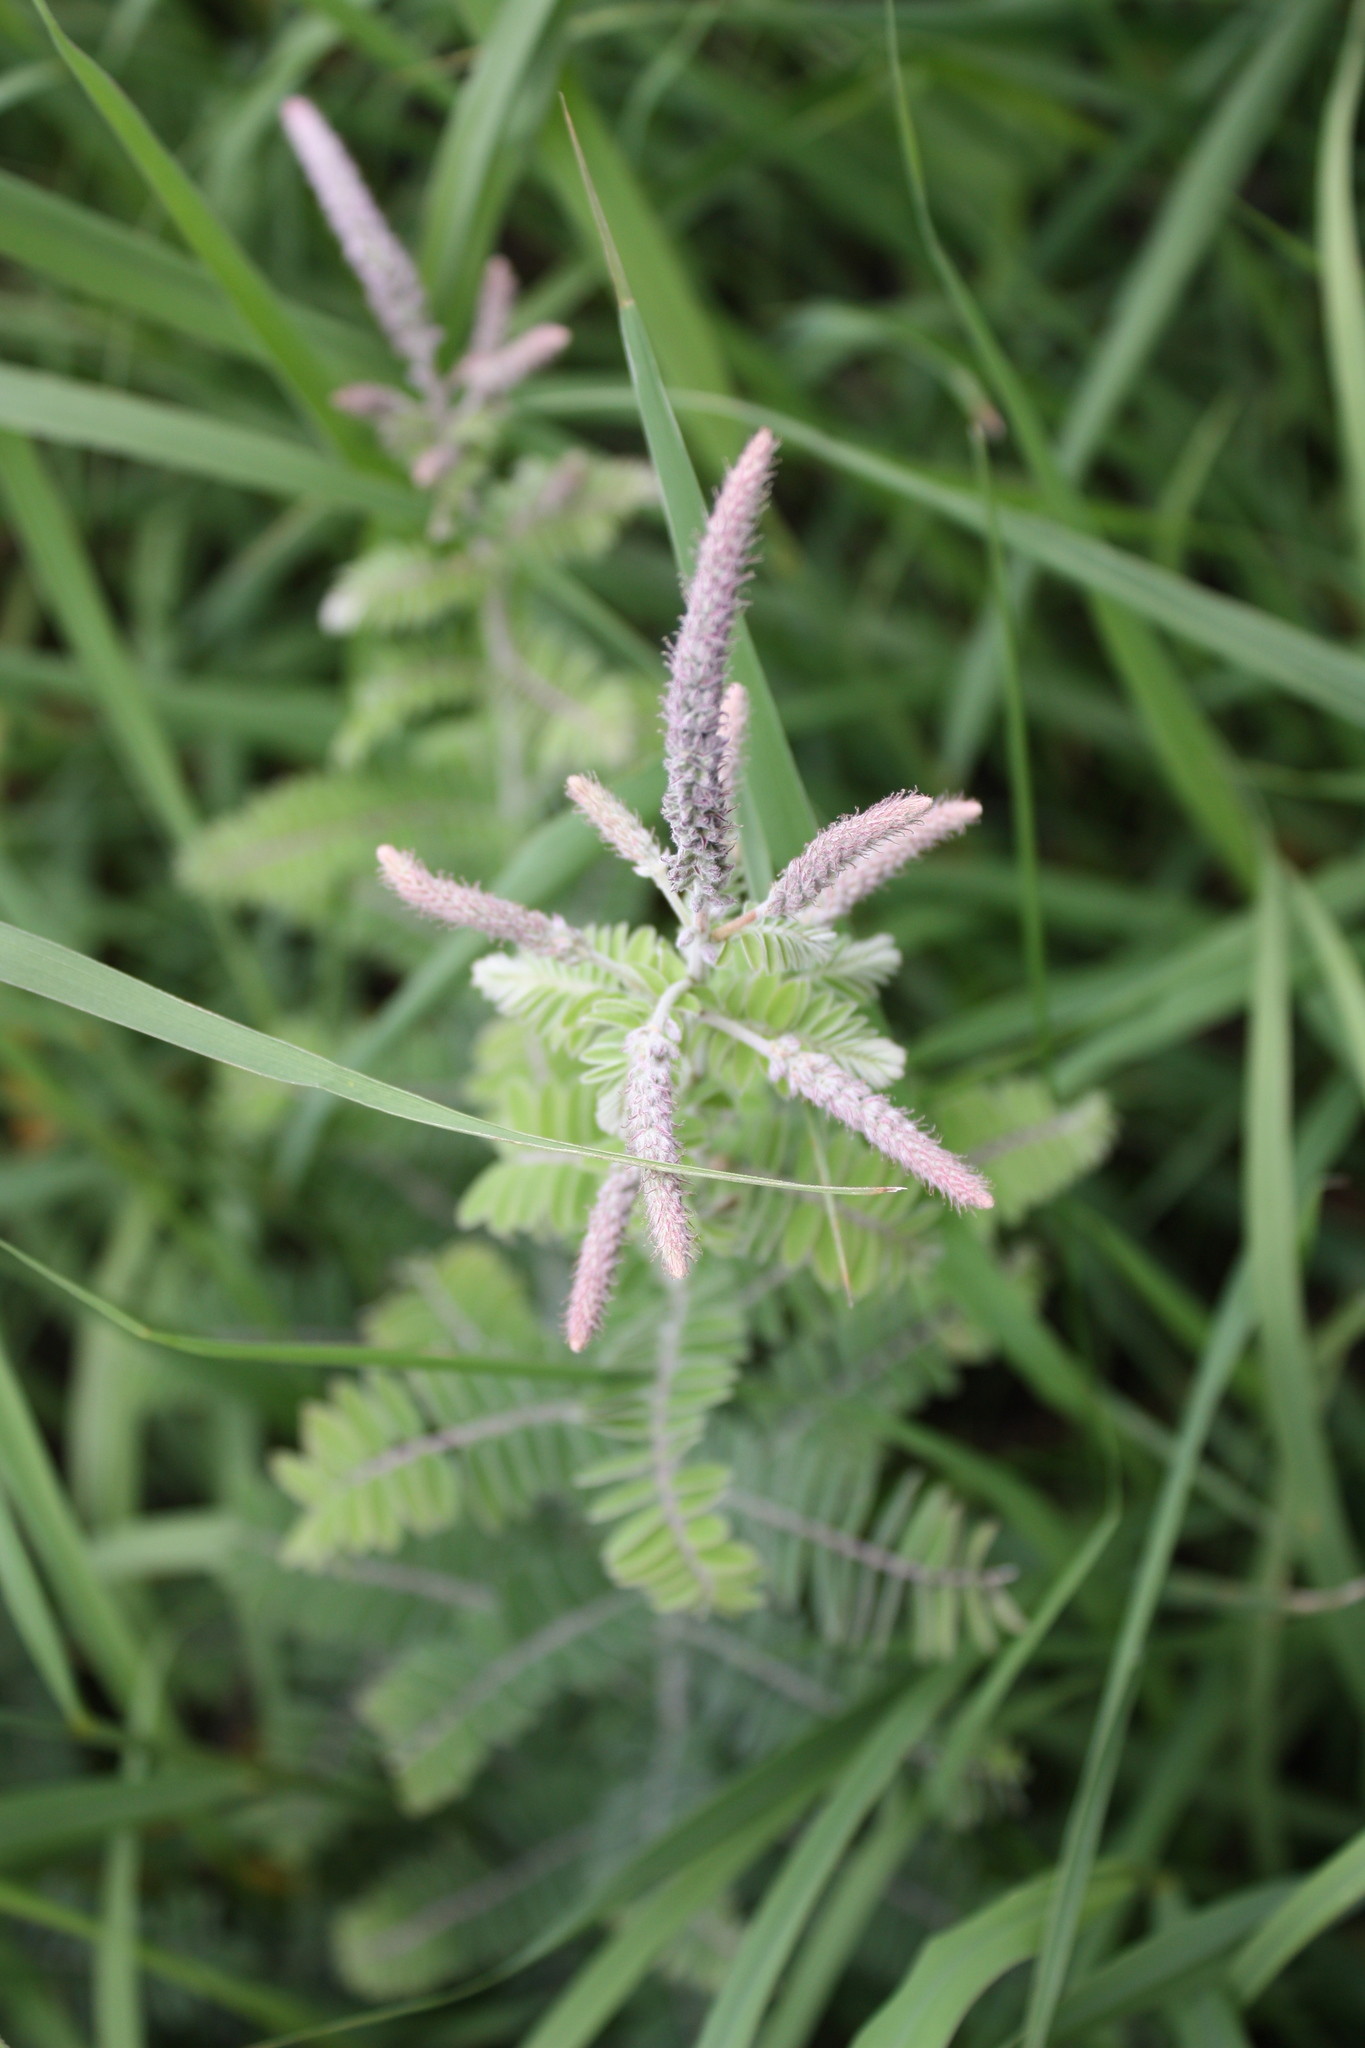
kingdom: Plantae
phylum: Tracheophyta
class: Magnoliopsida
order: Fabales
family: Fabaceae
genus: Amorpha
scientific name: Amorpha canescens
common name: Leadplant
